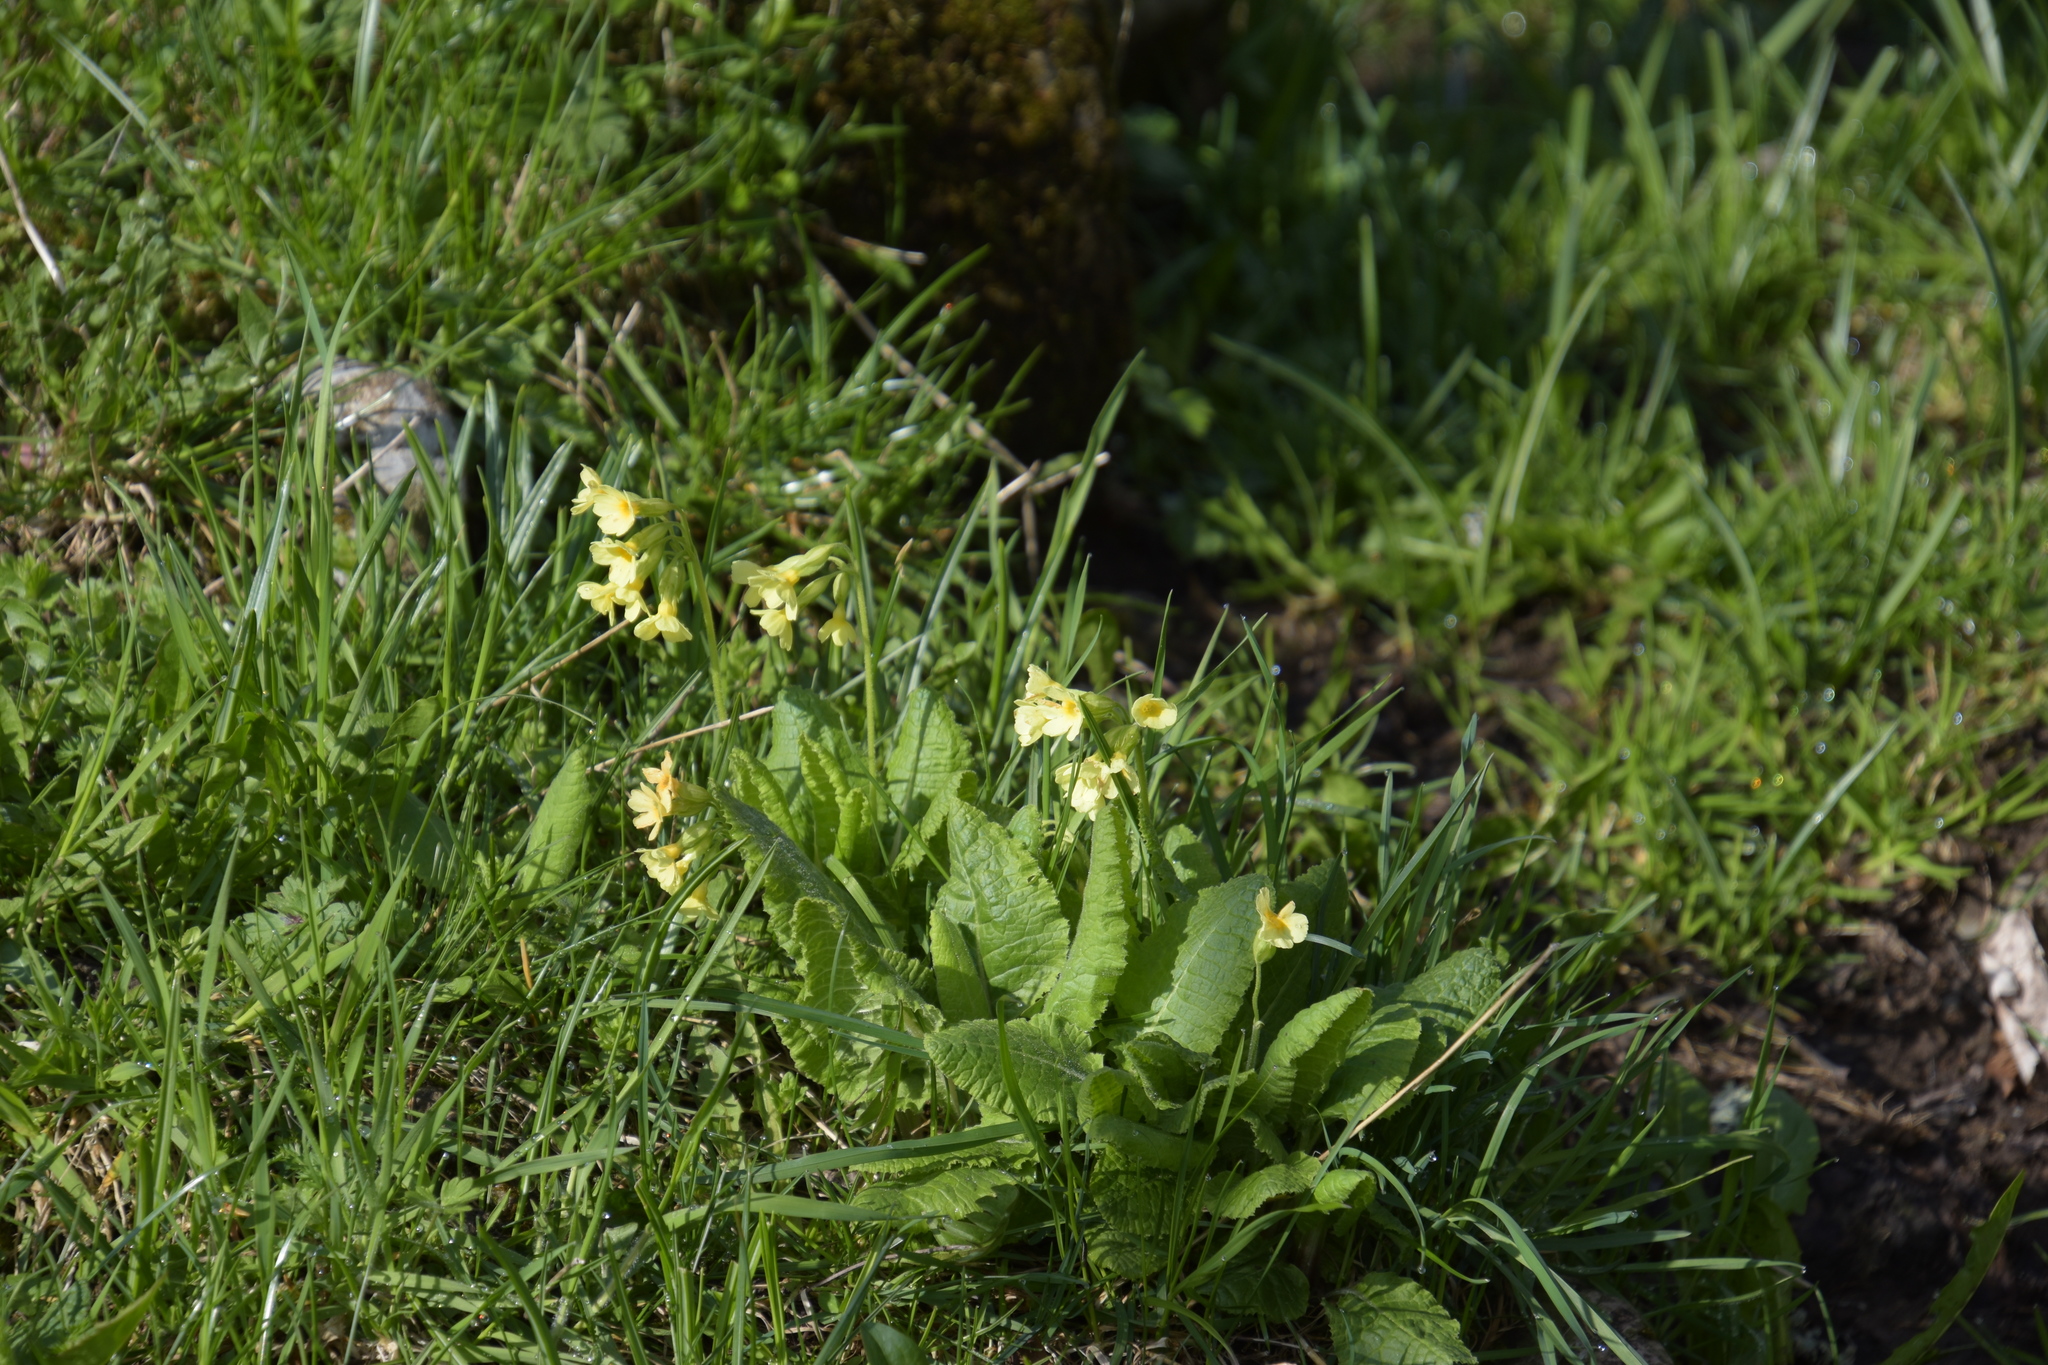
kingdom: Plantae
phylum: Tracheophyta
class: Magnoliopsida
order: Ericales
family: Primulaceae
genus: Primula
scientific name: Primula elatior
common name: Oxlip
